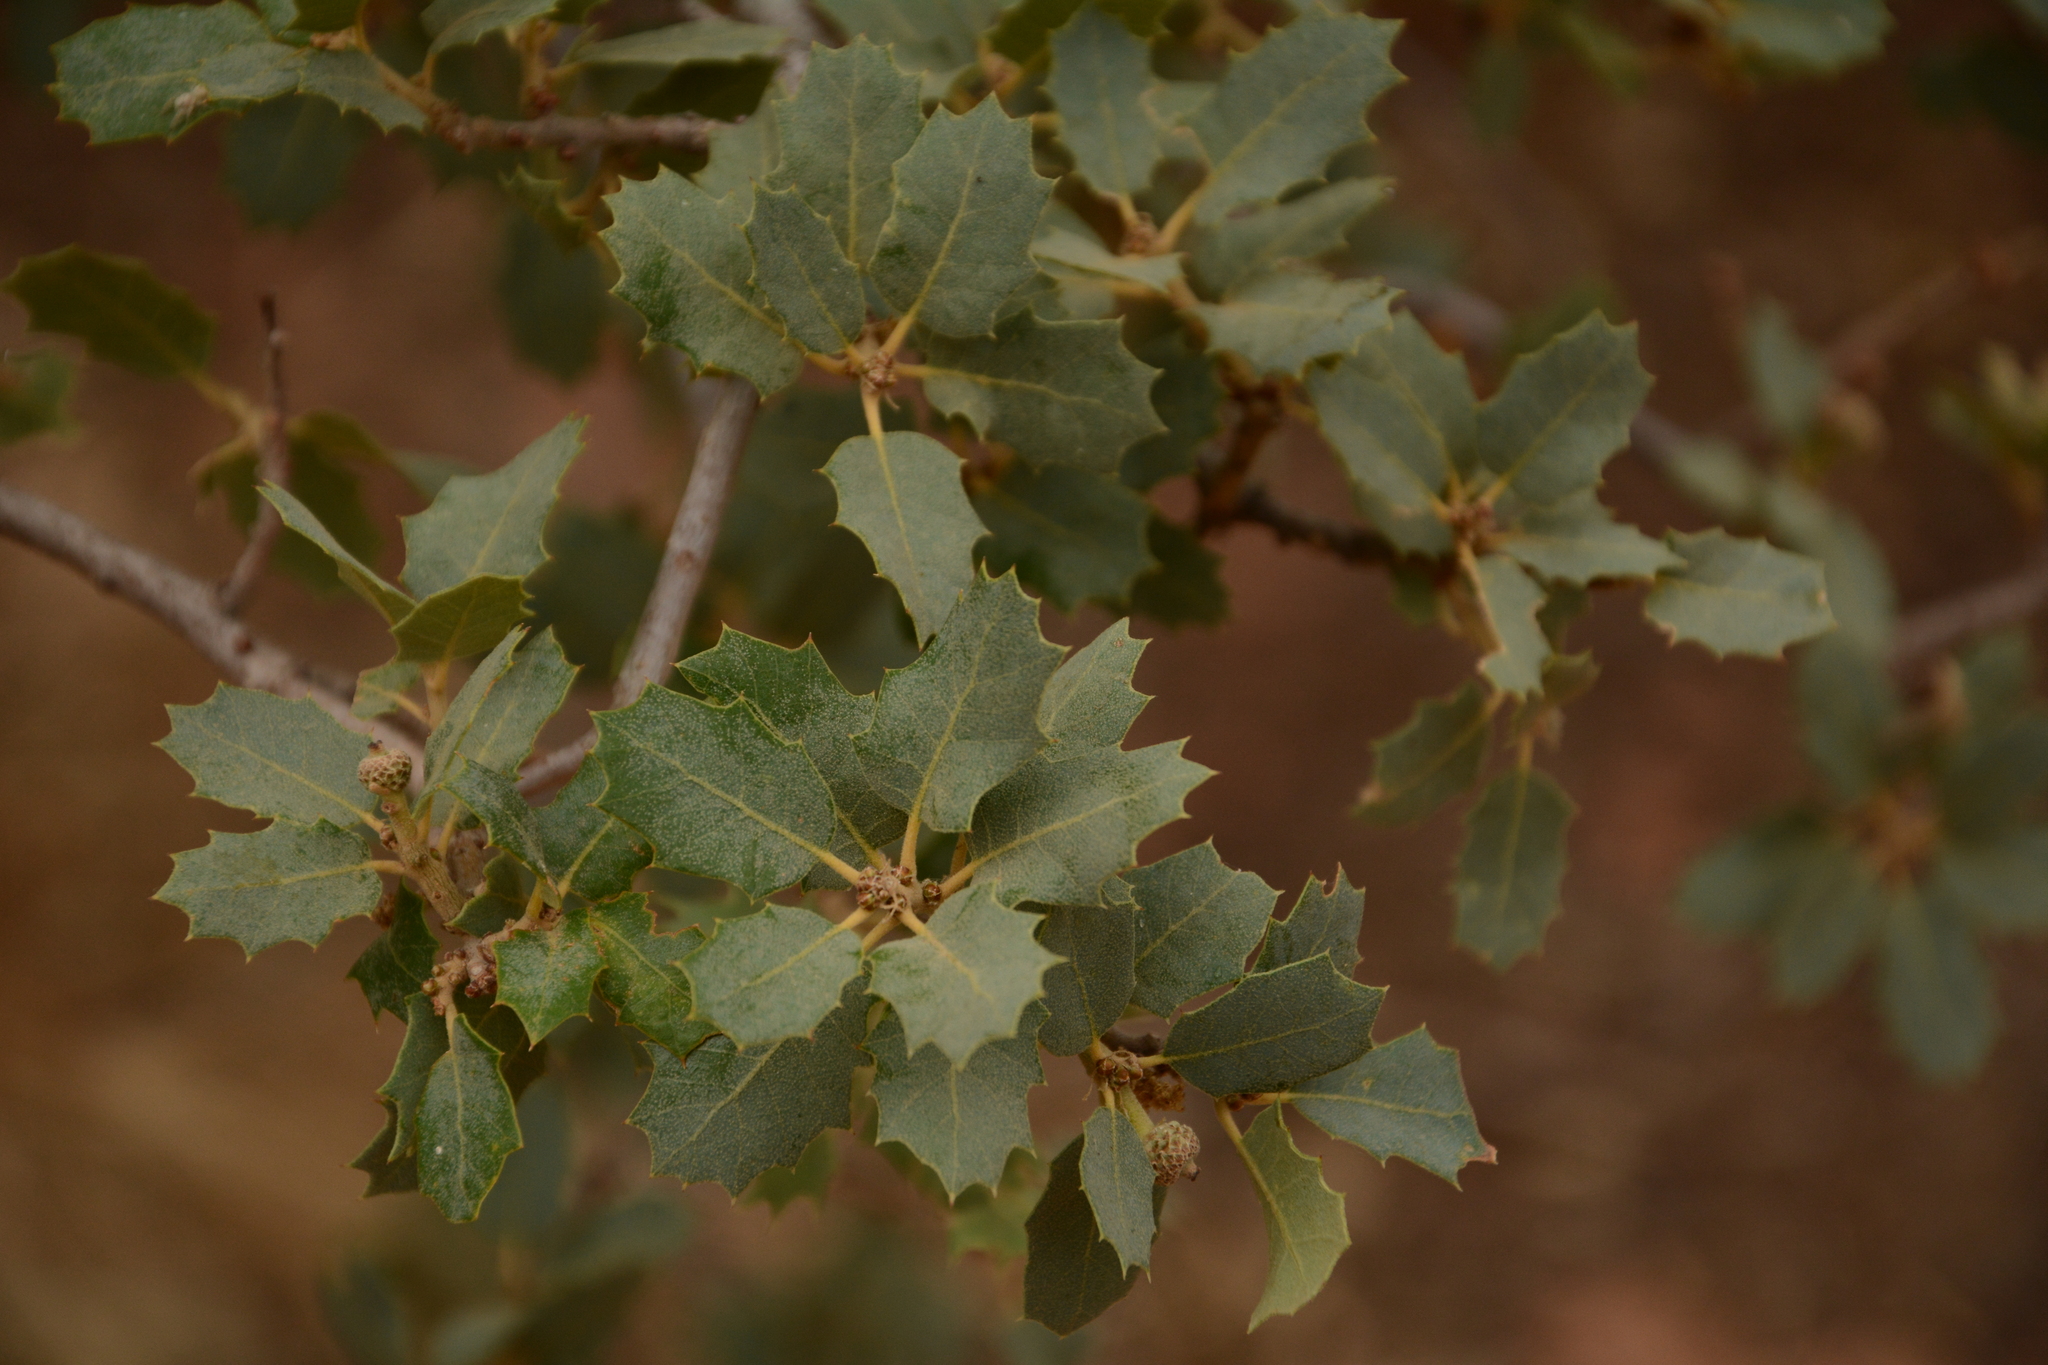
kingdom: Plantae
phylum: Tracheophyta
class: Magnoliopsida
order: Fagales
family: Fagaceae
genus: Quercus
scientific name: Quercus turbinella
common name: Sonoran scrub oak
